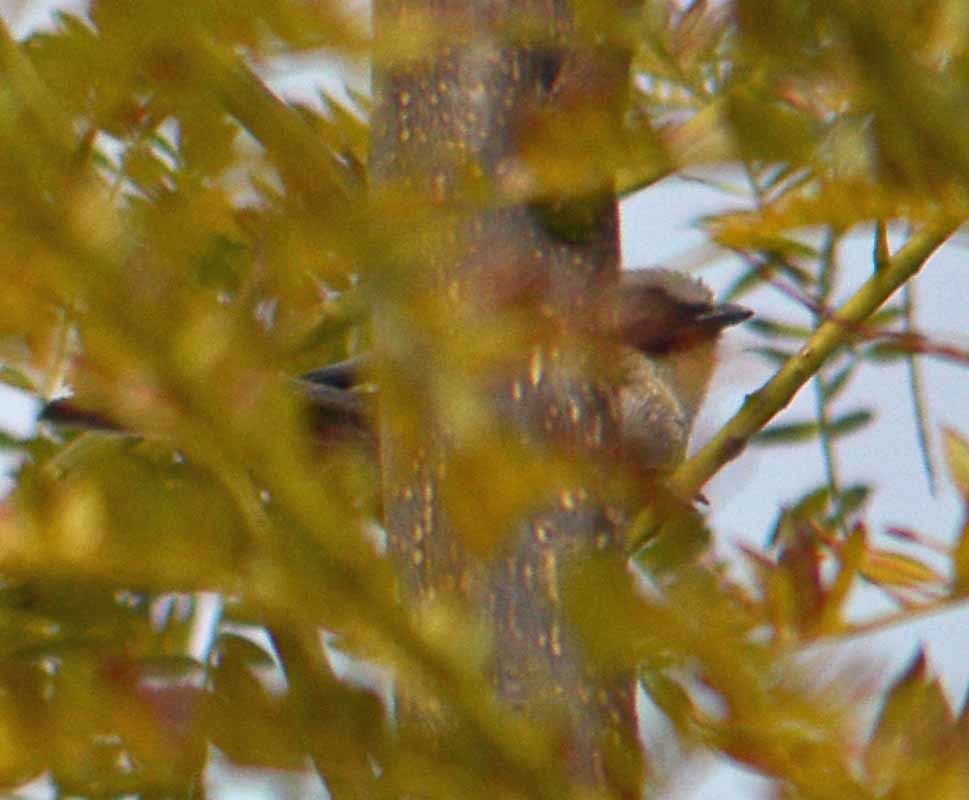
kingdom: Animalia
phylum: Chordata
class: Aves
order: Passeriformes
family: Aegithalidae
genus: Psaltriparus
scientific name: Psaltriparus minimus
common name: American bushtit
